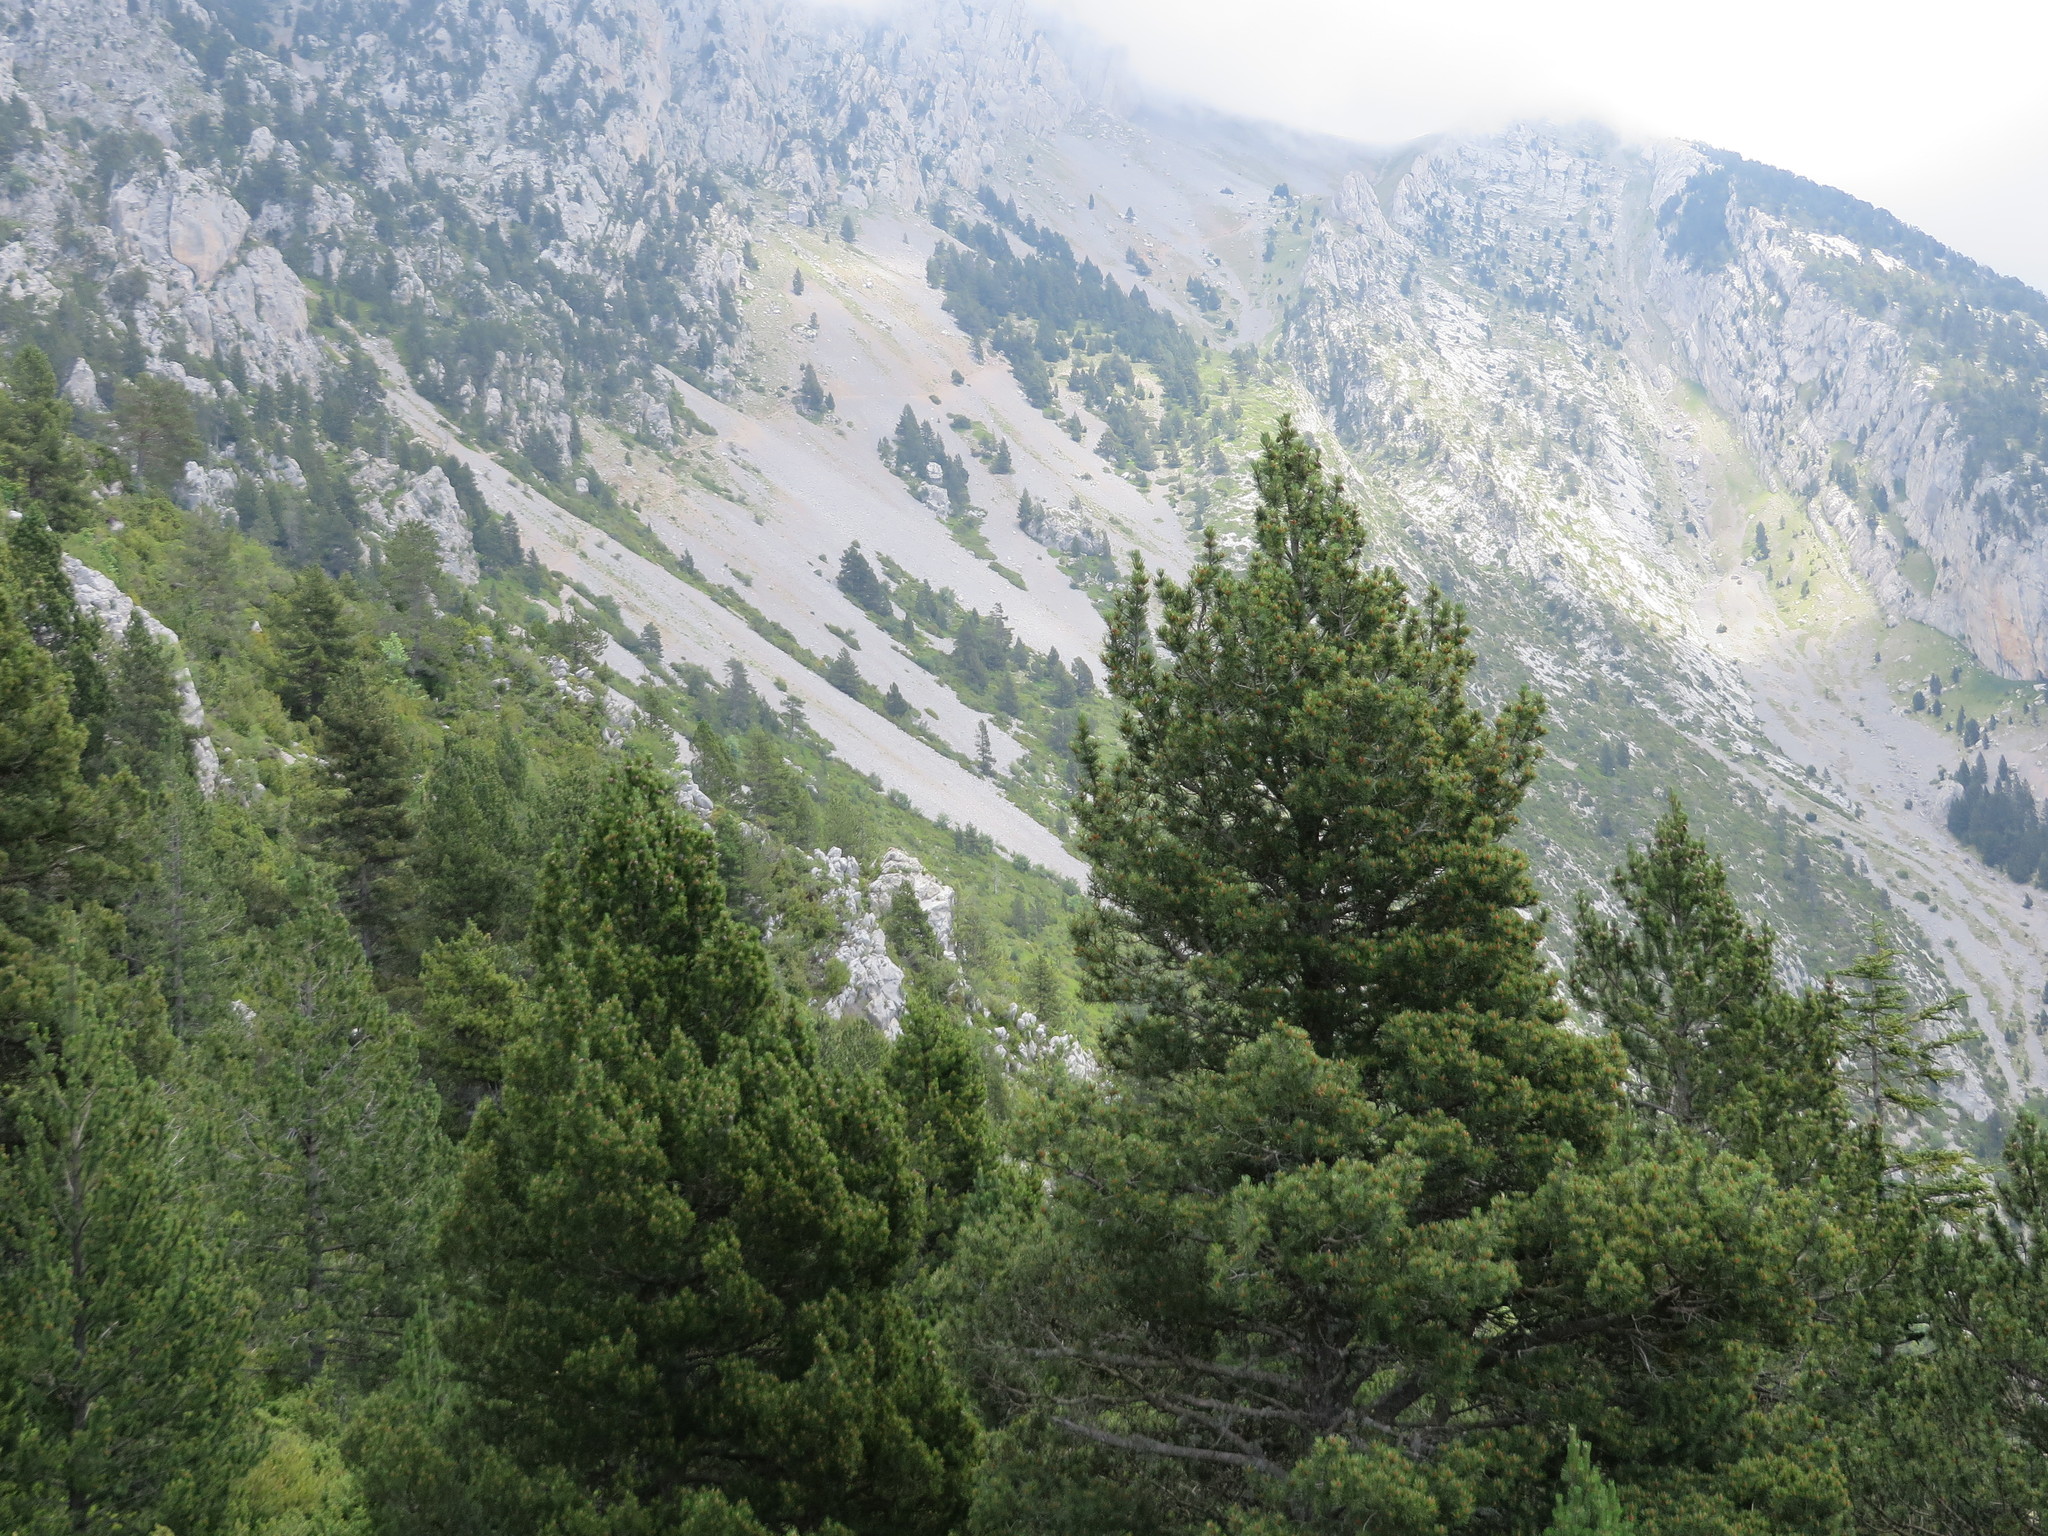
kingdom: Plantae
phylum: Tracheophyta
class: Pinopsida
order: Pinales
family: Pinaceae
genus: Pinus
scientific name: Pinus uncinata
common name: Mountain pine
